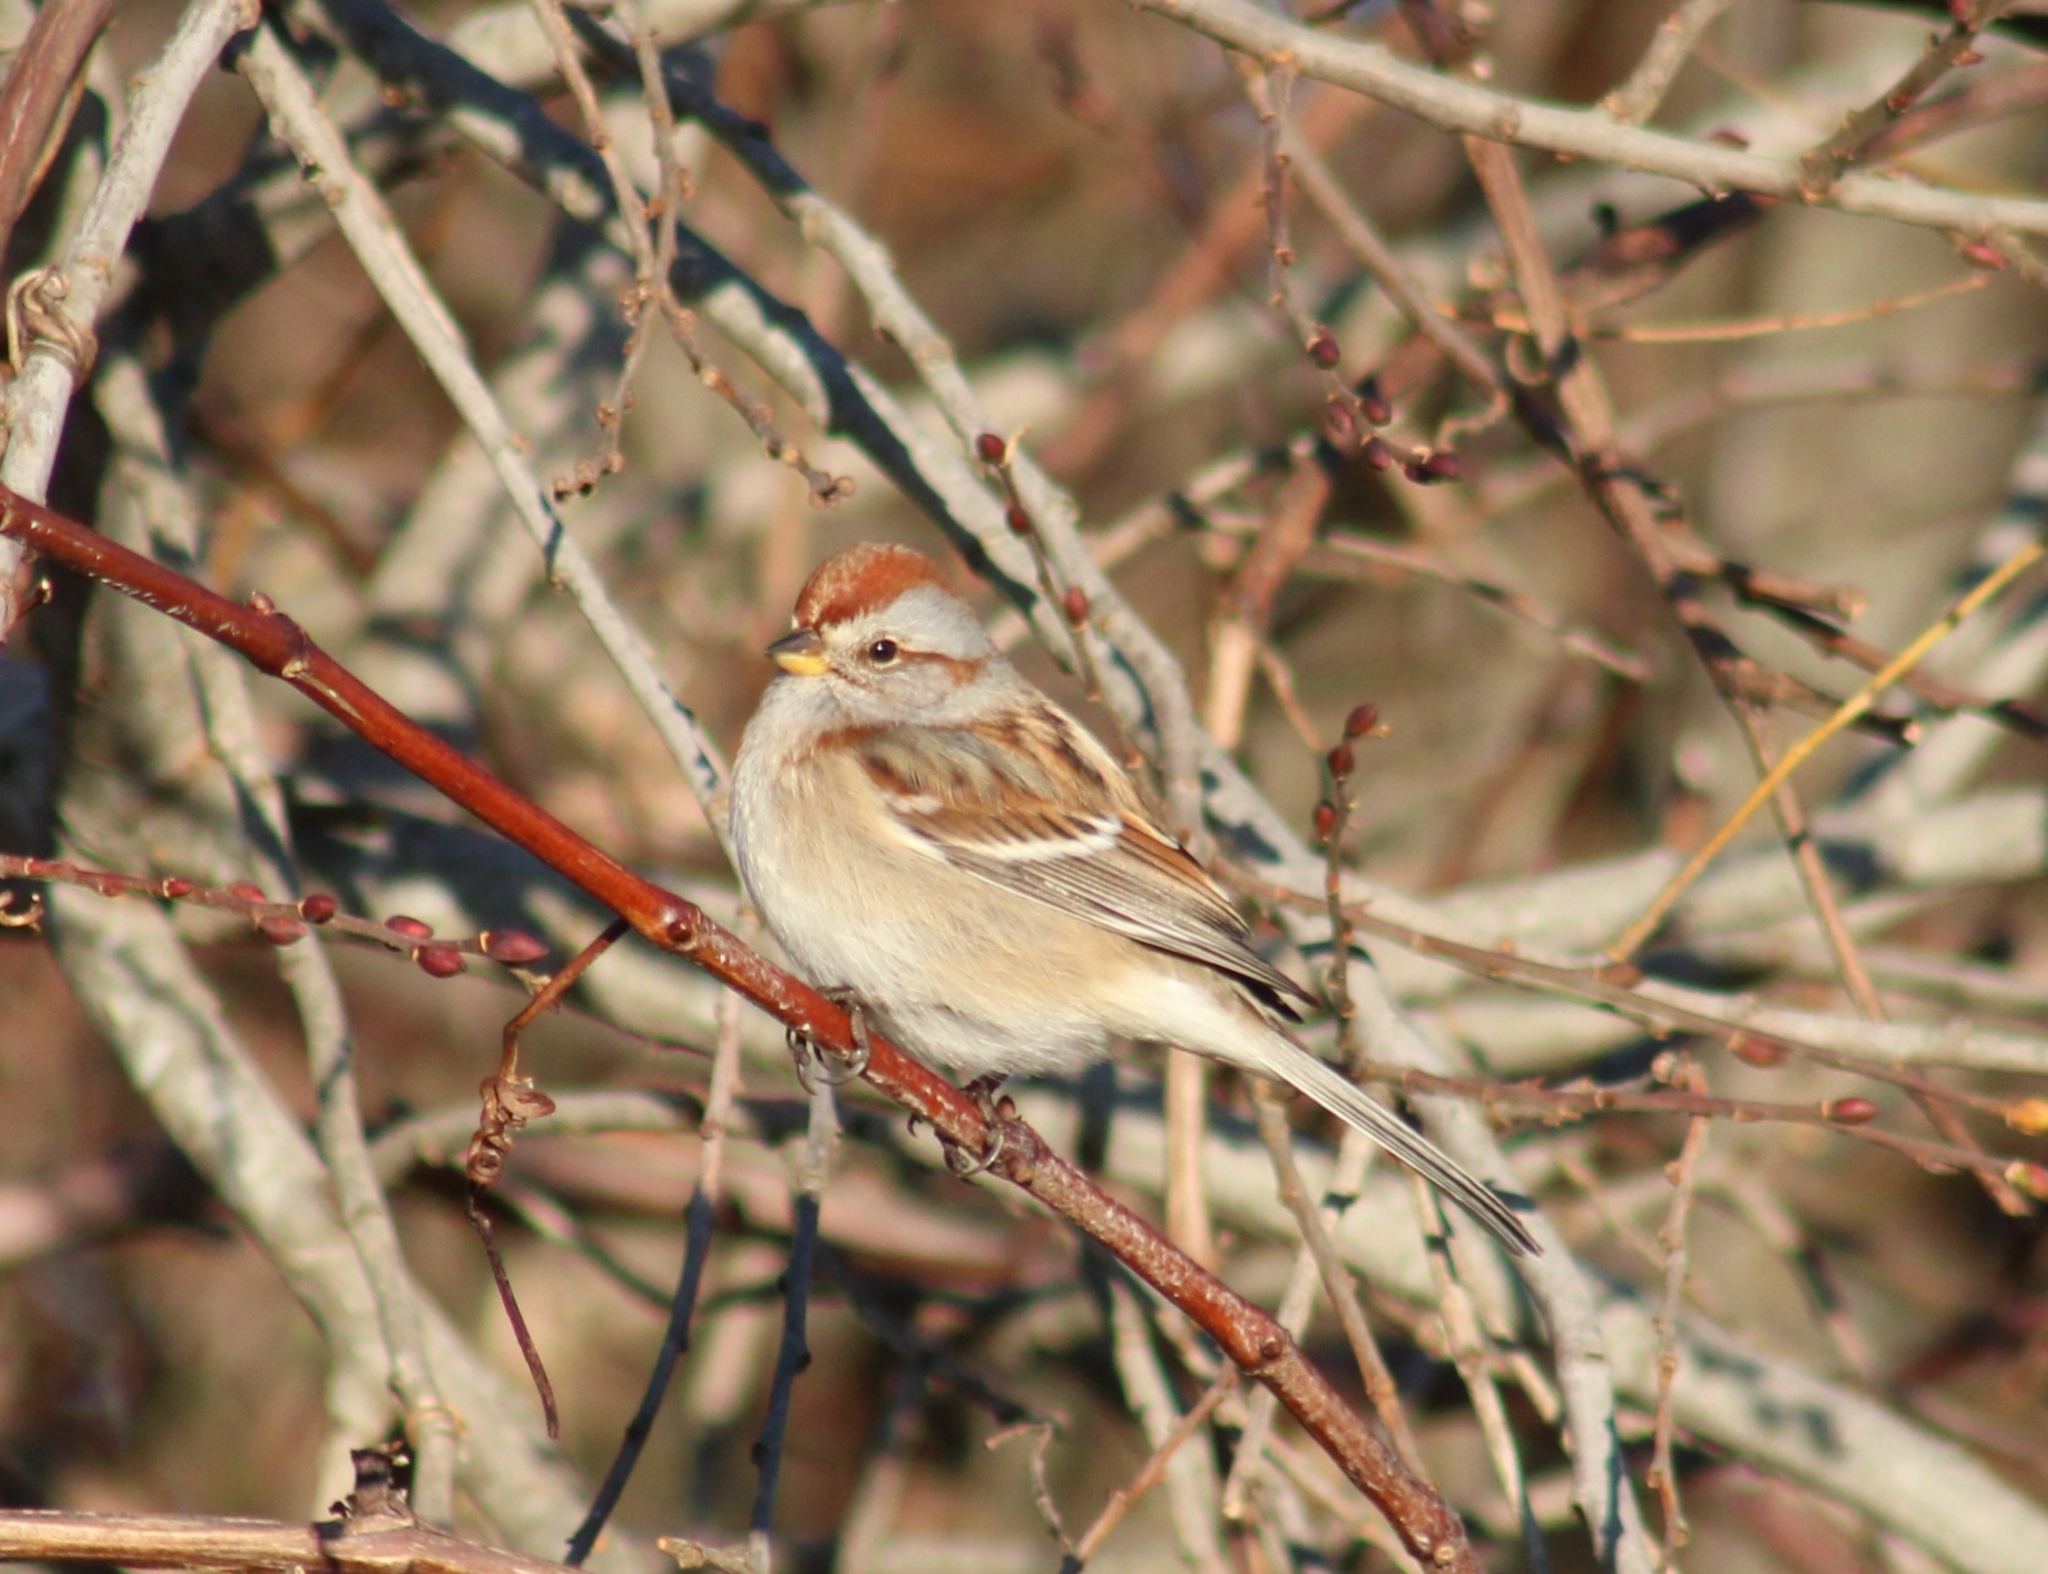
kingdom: Animalia
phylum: Chordata
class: Aves
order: Passeriformes
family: Passerellidae
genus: Spizelloides
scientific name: Spizelloides arborea
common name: American tree sparrow
